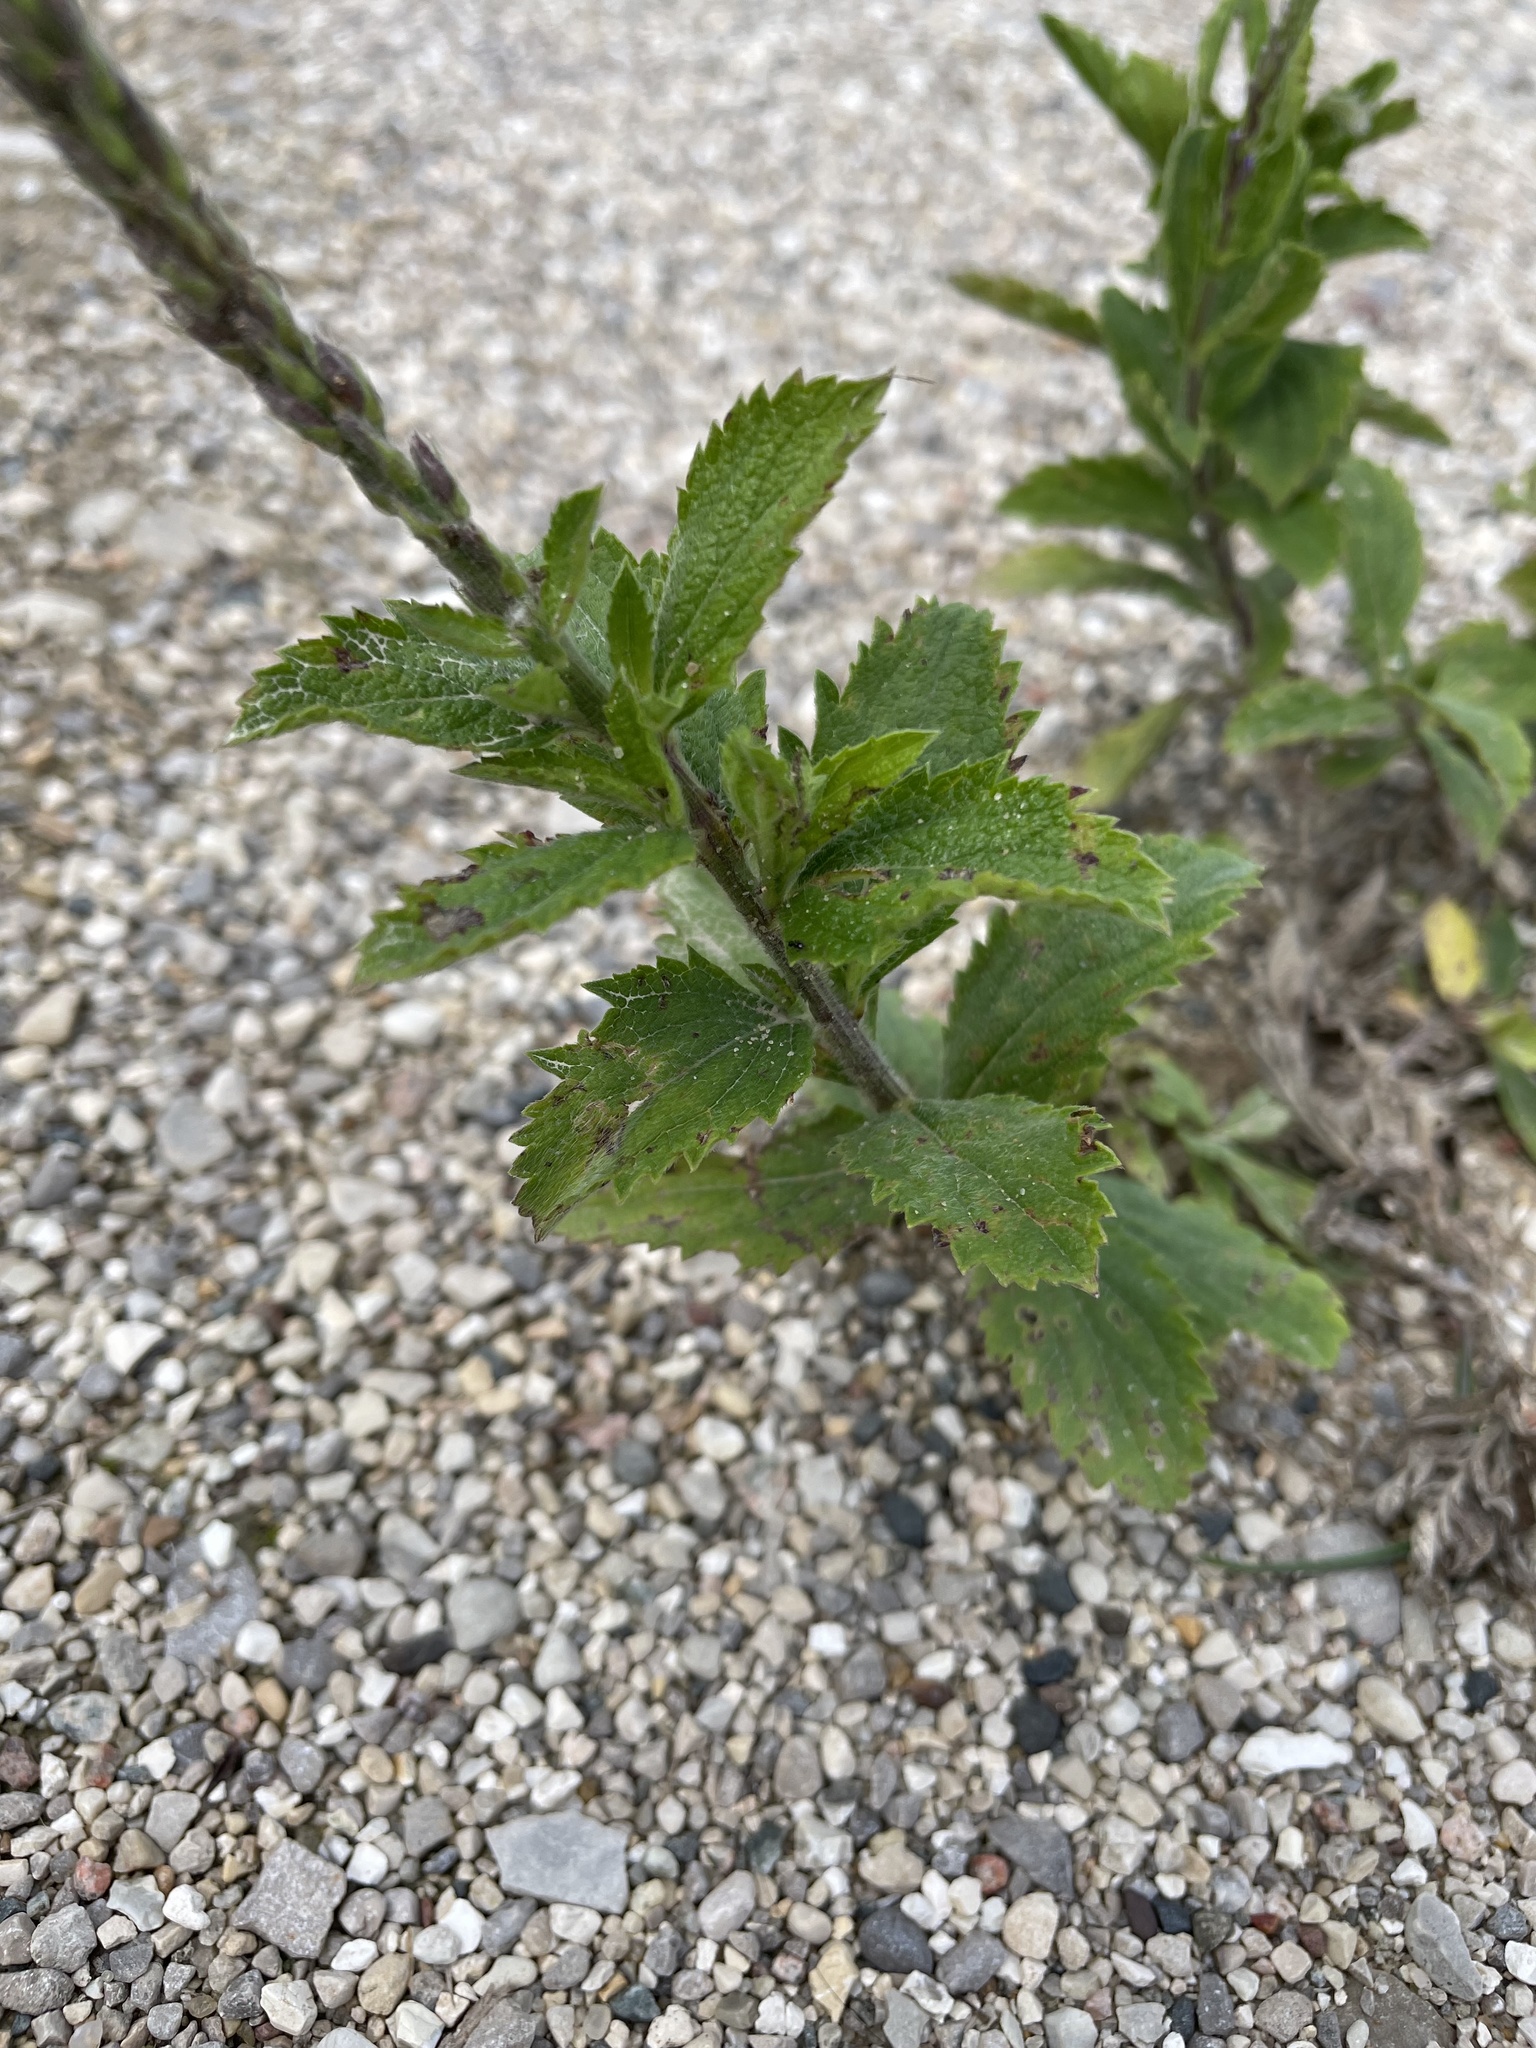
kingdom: Plantae
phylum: Tracheophyta
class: Magnoliopsida
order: Lamiales
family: Verbenaceae
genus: Verbena
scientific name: Verbena stricta
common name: Hoary vervain
